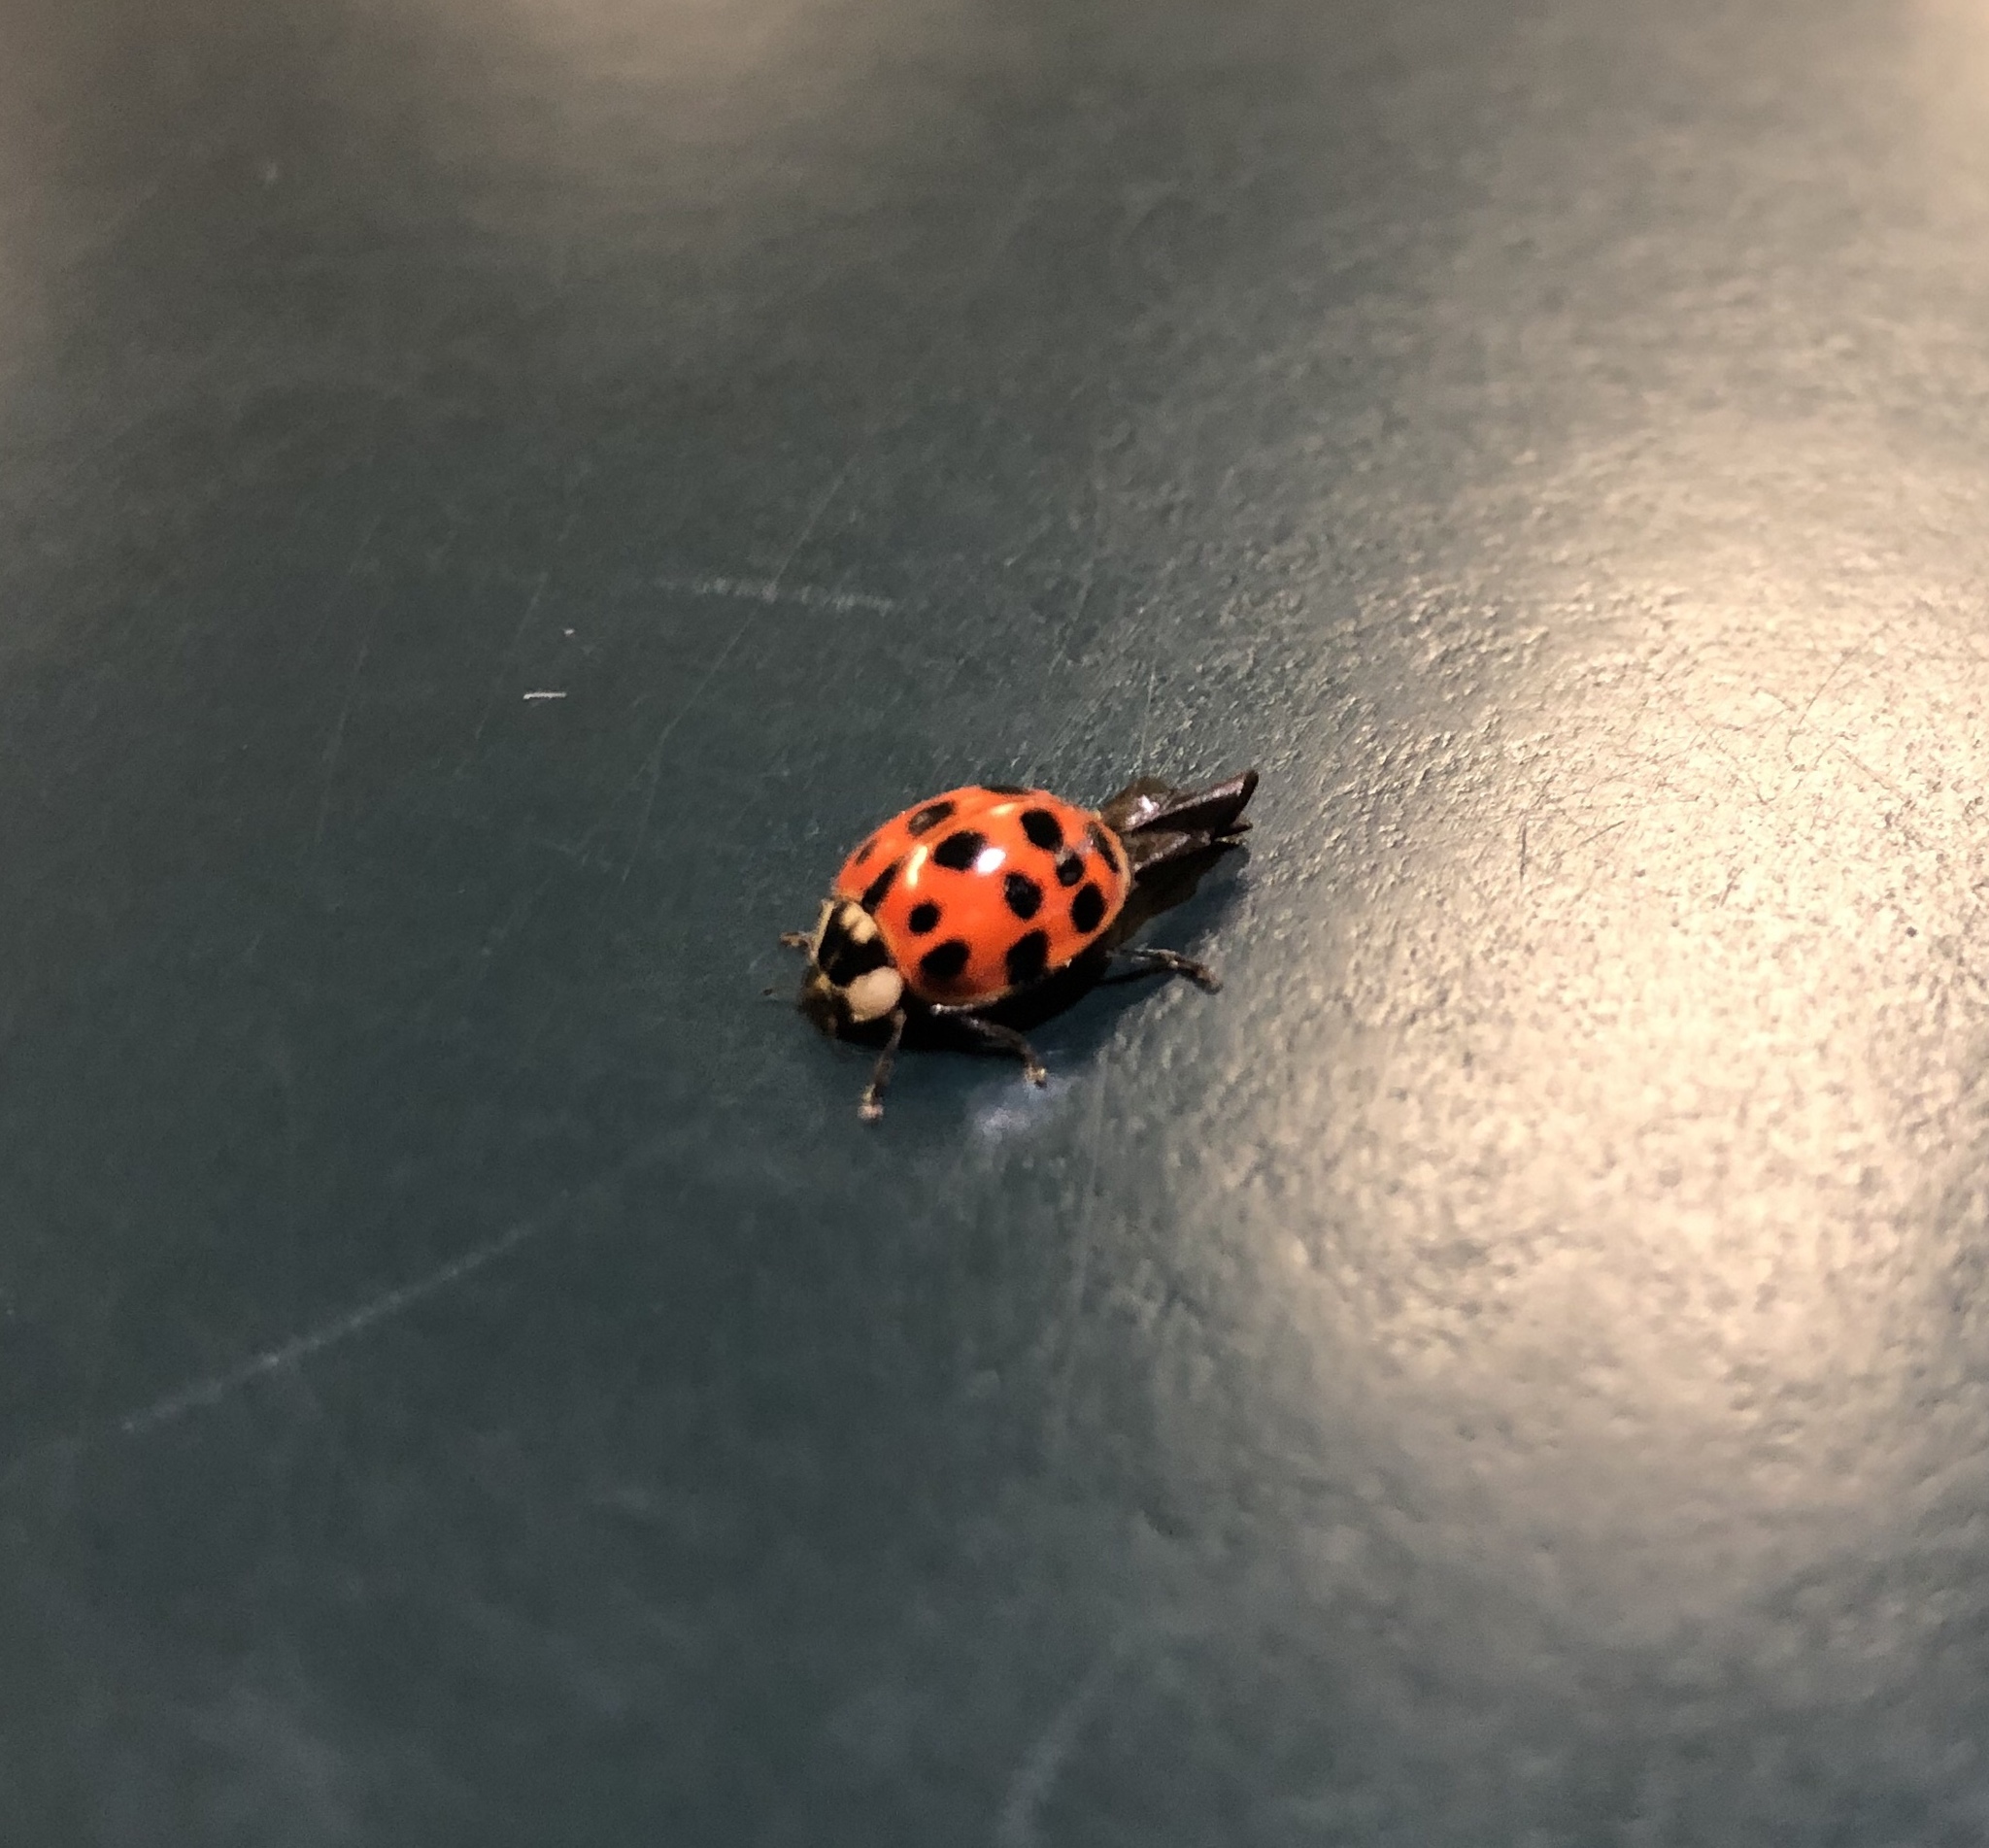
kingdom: Animalia
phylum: Arthropoda
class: Insecta
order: Coleoptera
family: Coccinellidae
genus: Harmonia
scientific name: Harmonia axyridis
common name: Harlequin ladybird
